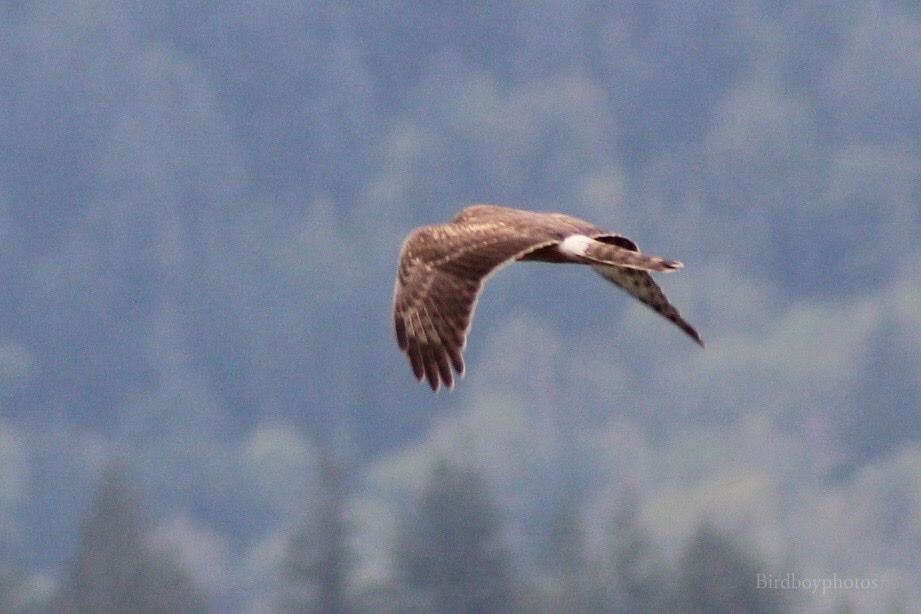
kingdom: Animalia
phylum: Chordata
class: Aves
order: Accipitriformes
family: Accipitridae
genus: Circus
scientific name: Circus cyaneus
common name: Hen harrier
